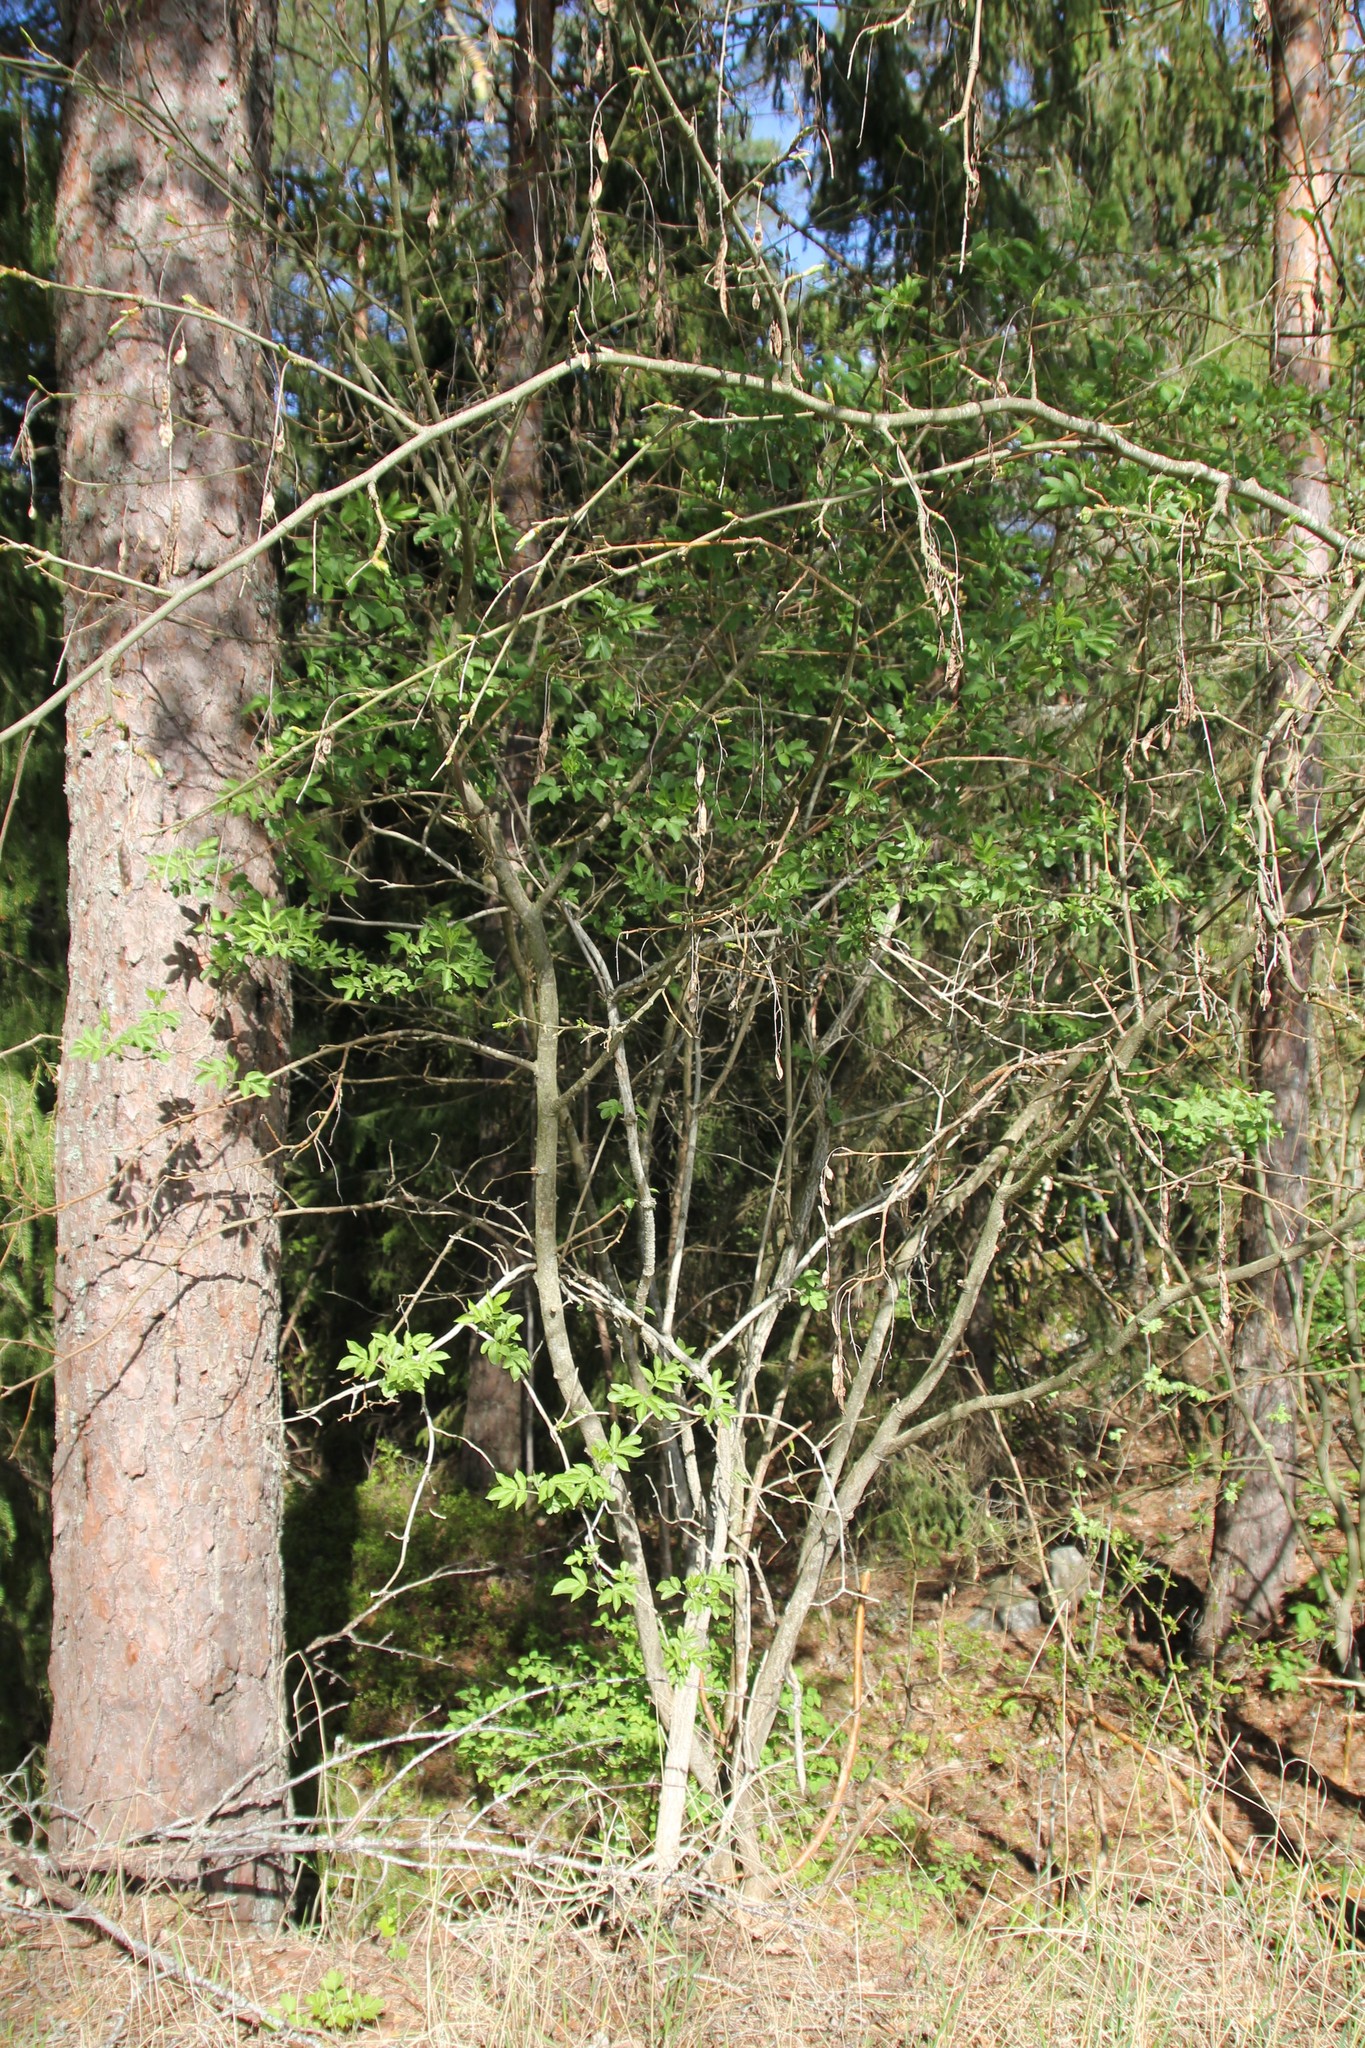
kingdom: Plantae
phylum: Tracheophyta
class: Magnoliopsida
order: Lamiales
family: Oleaceae
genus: Fraxinus
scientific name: Fraxinus excelsior
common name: European ash
